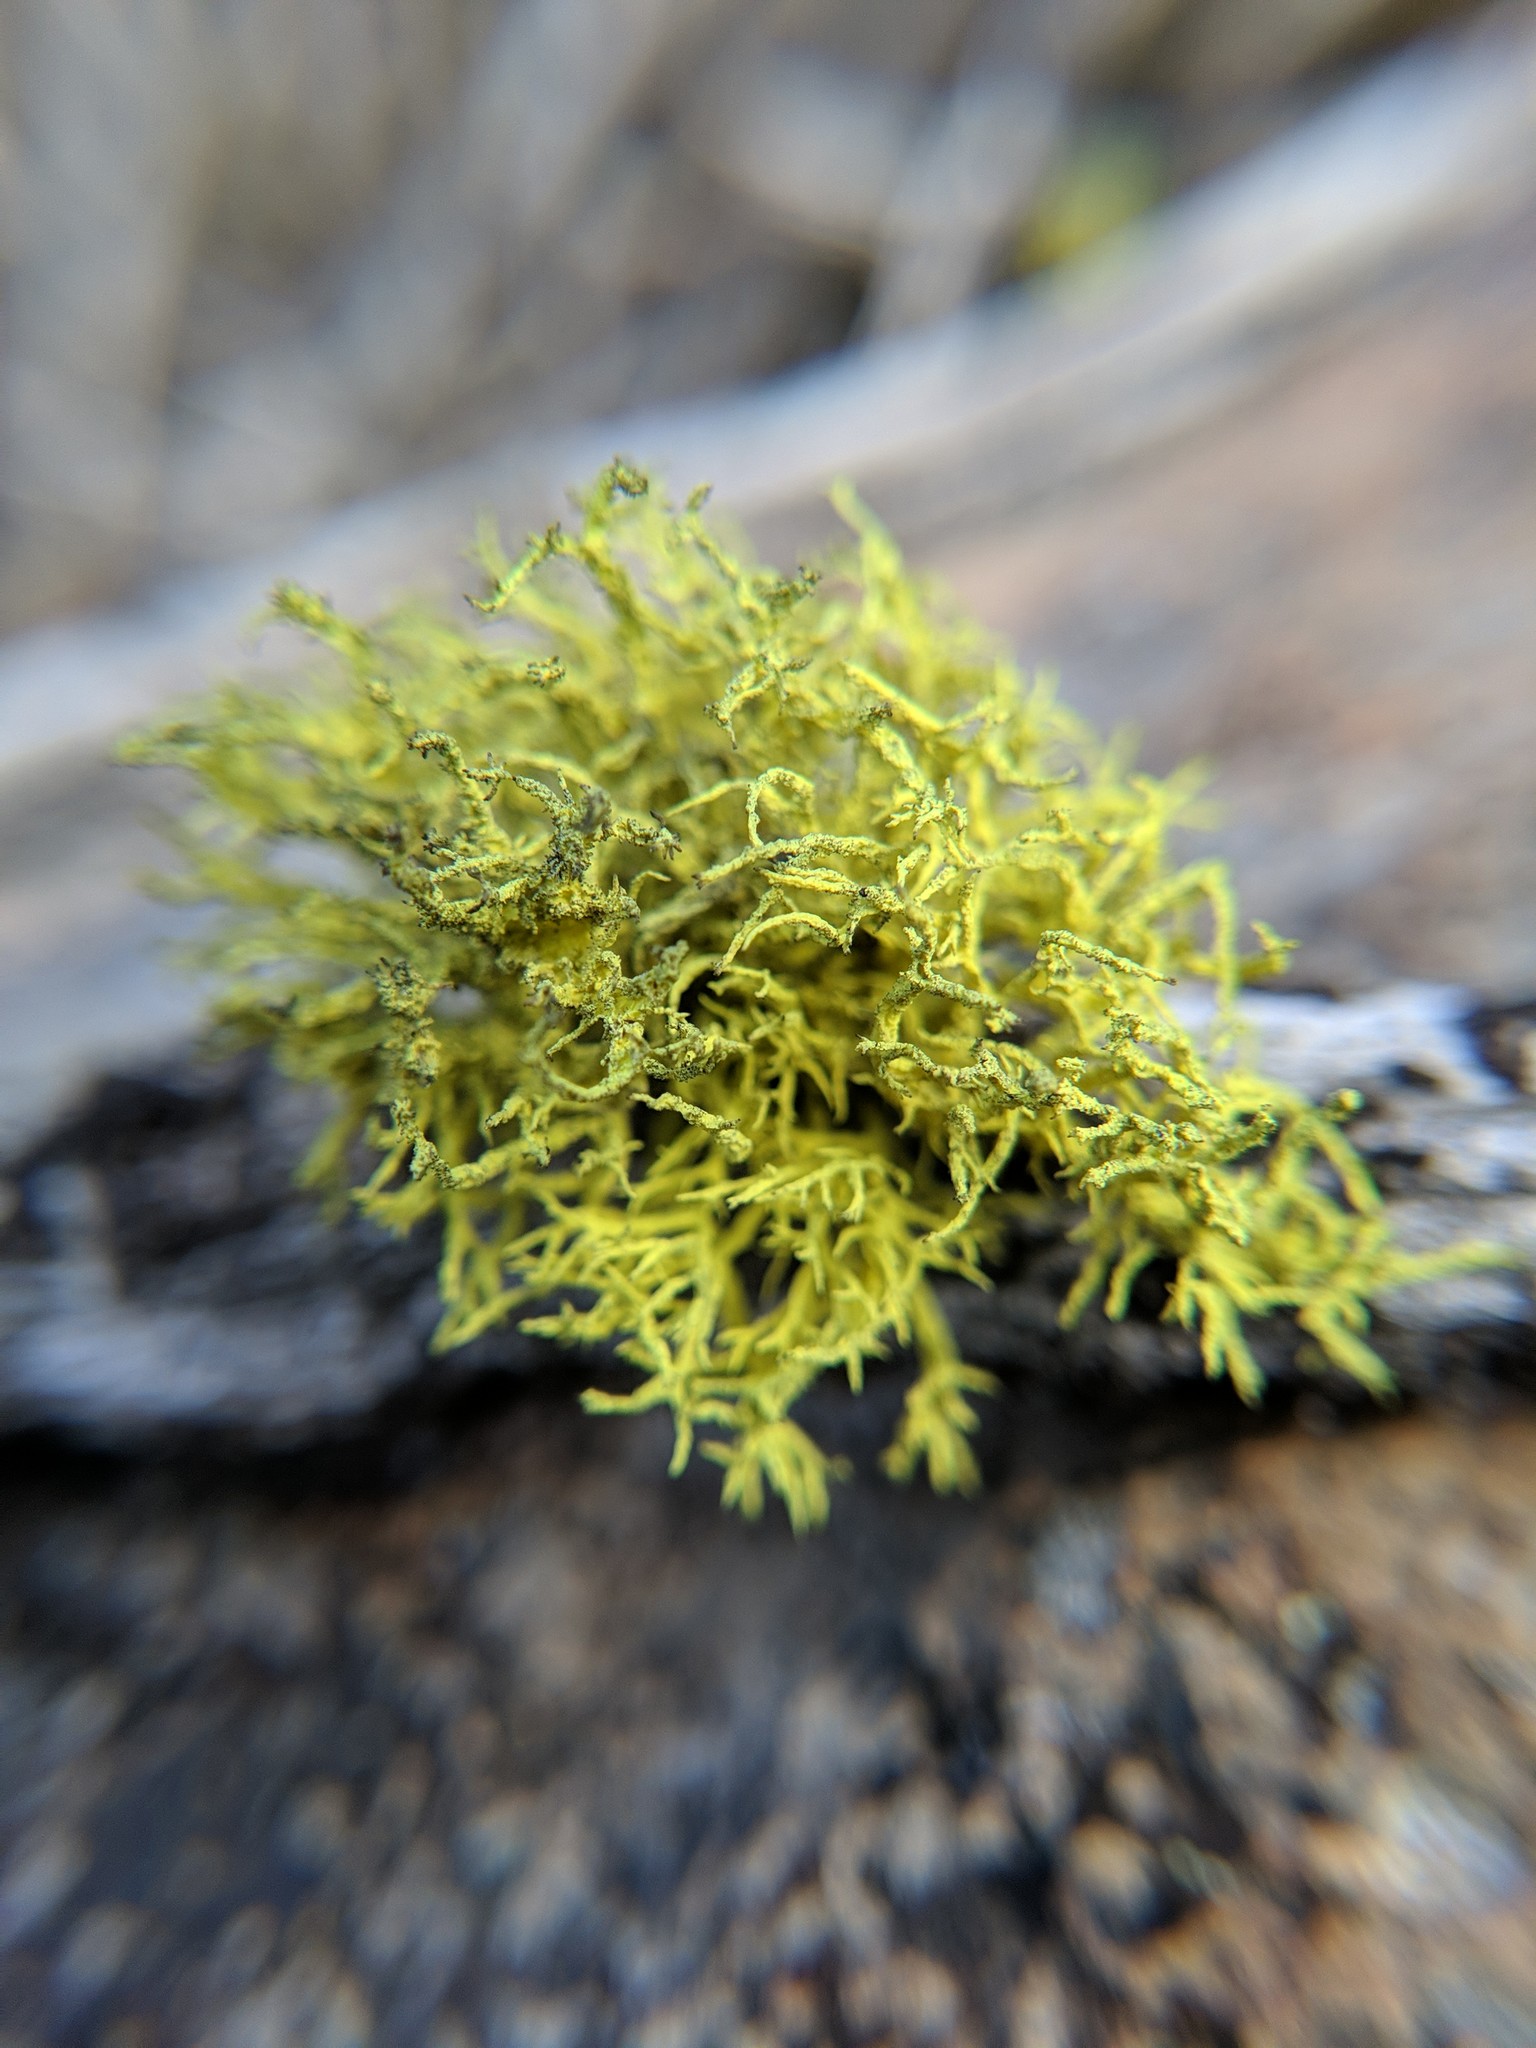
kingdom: Fungi
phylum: Ascomycota
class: Lecanoromycetes
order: Lecanorales
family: Parmeliaceae
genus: Letharia
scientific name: Letharia vulpina
